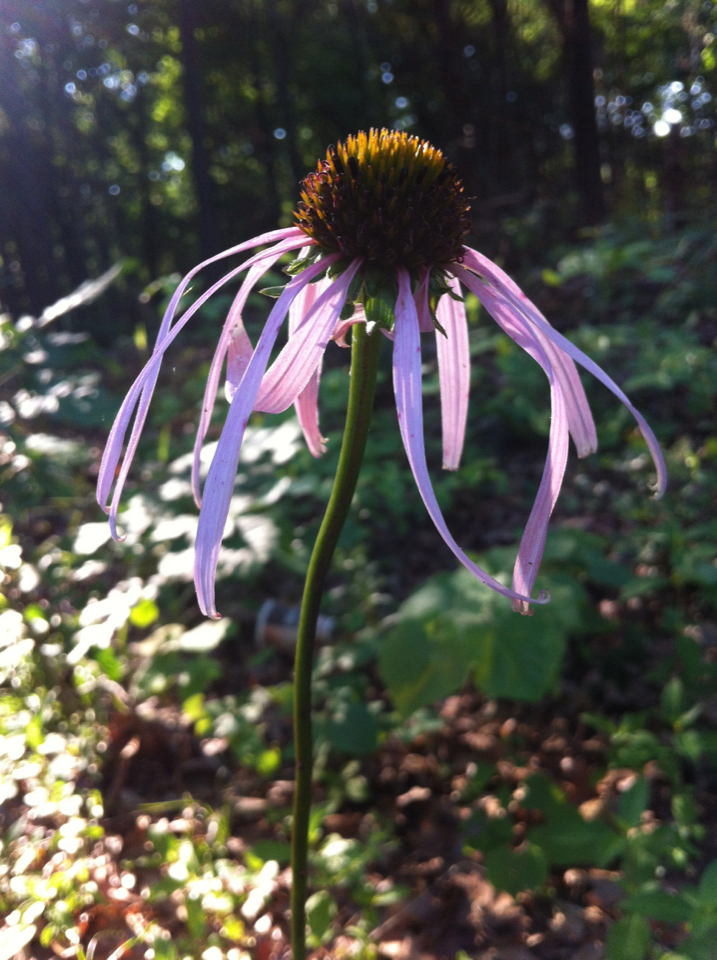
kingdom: Plantae
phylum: Tracheophyta
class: Magnoliopsida
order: Asterales
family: Asteraceae
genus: Echinacea
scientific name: Echinacea laevigata
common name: Smooth coneflower
